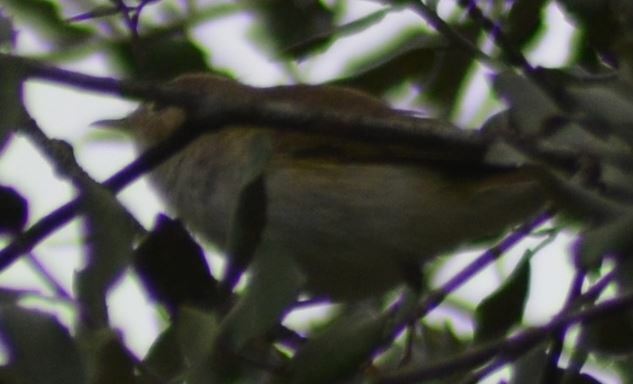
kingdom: Animalia
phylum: Chordata
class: Aves
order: Passeriformes
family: Phylloscopidae
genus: Phylloscopus
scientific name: Phylloscopus bonelli
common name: Western bonelli's warbler
